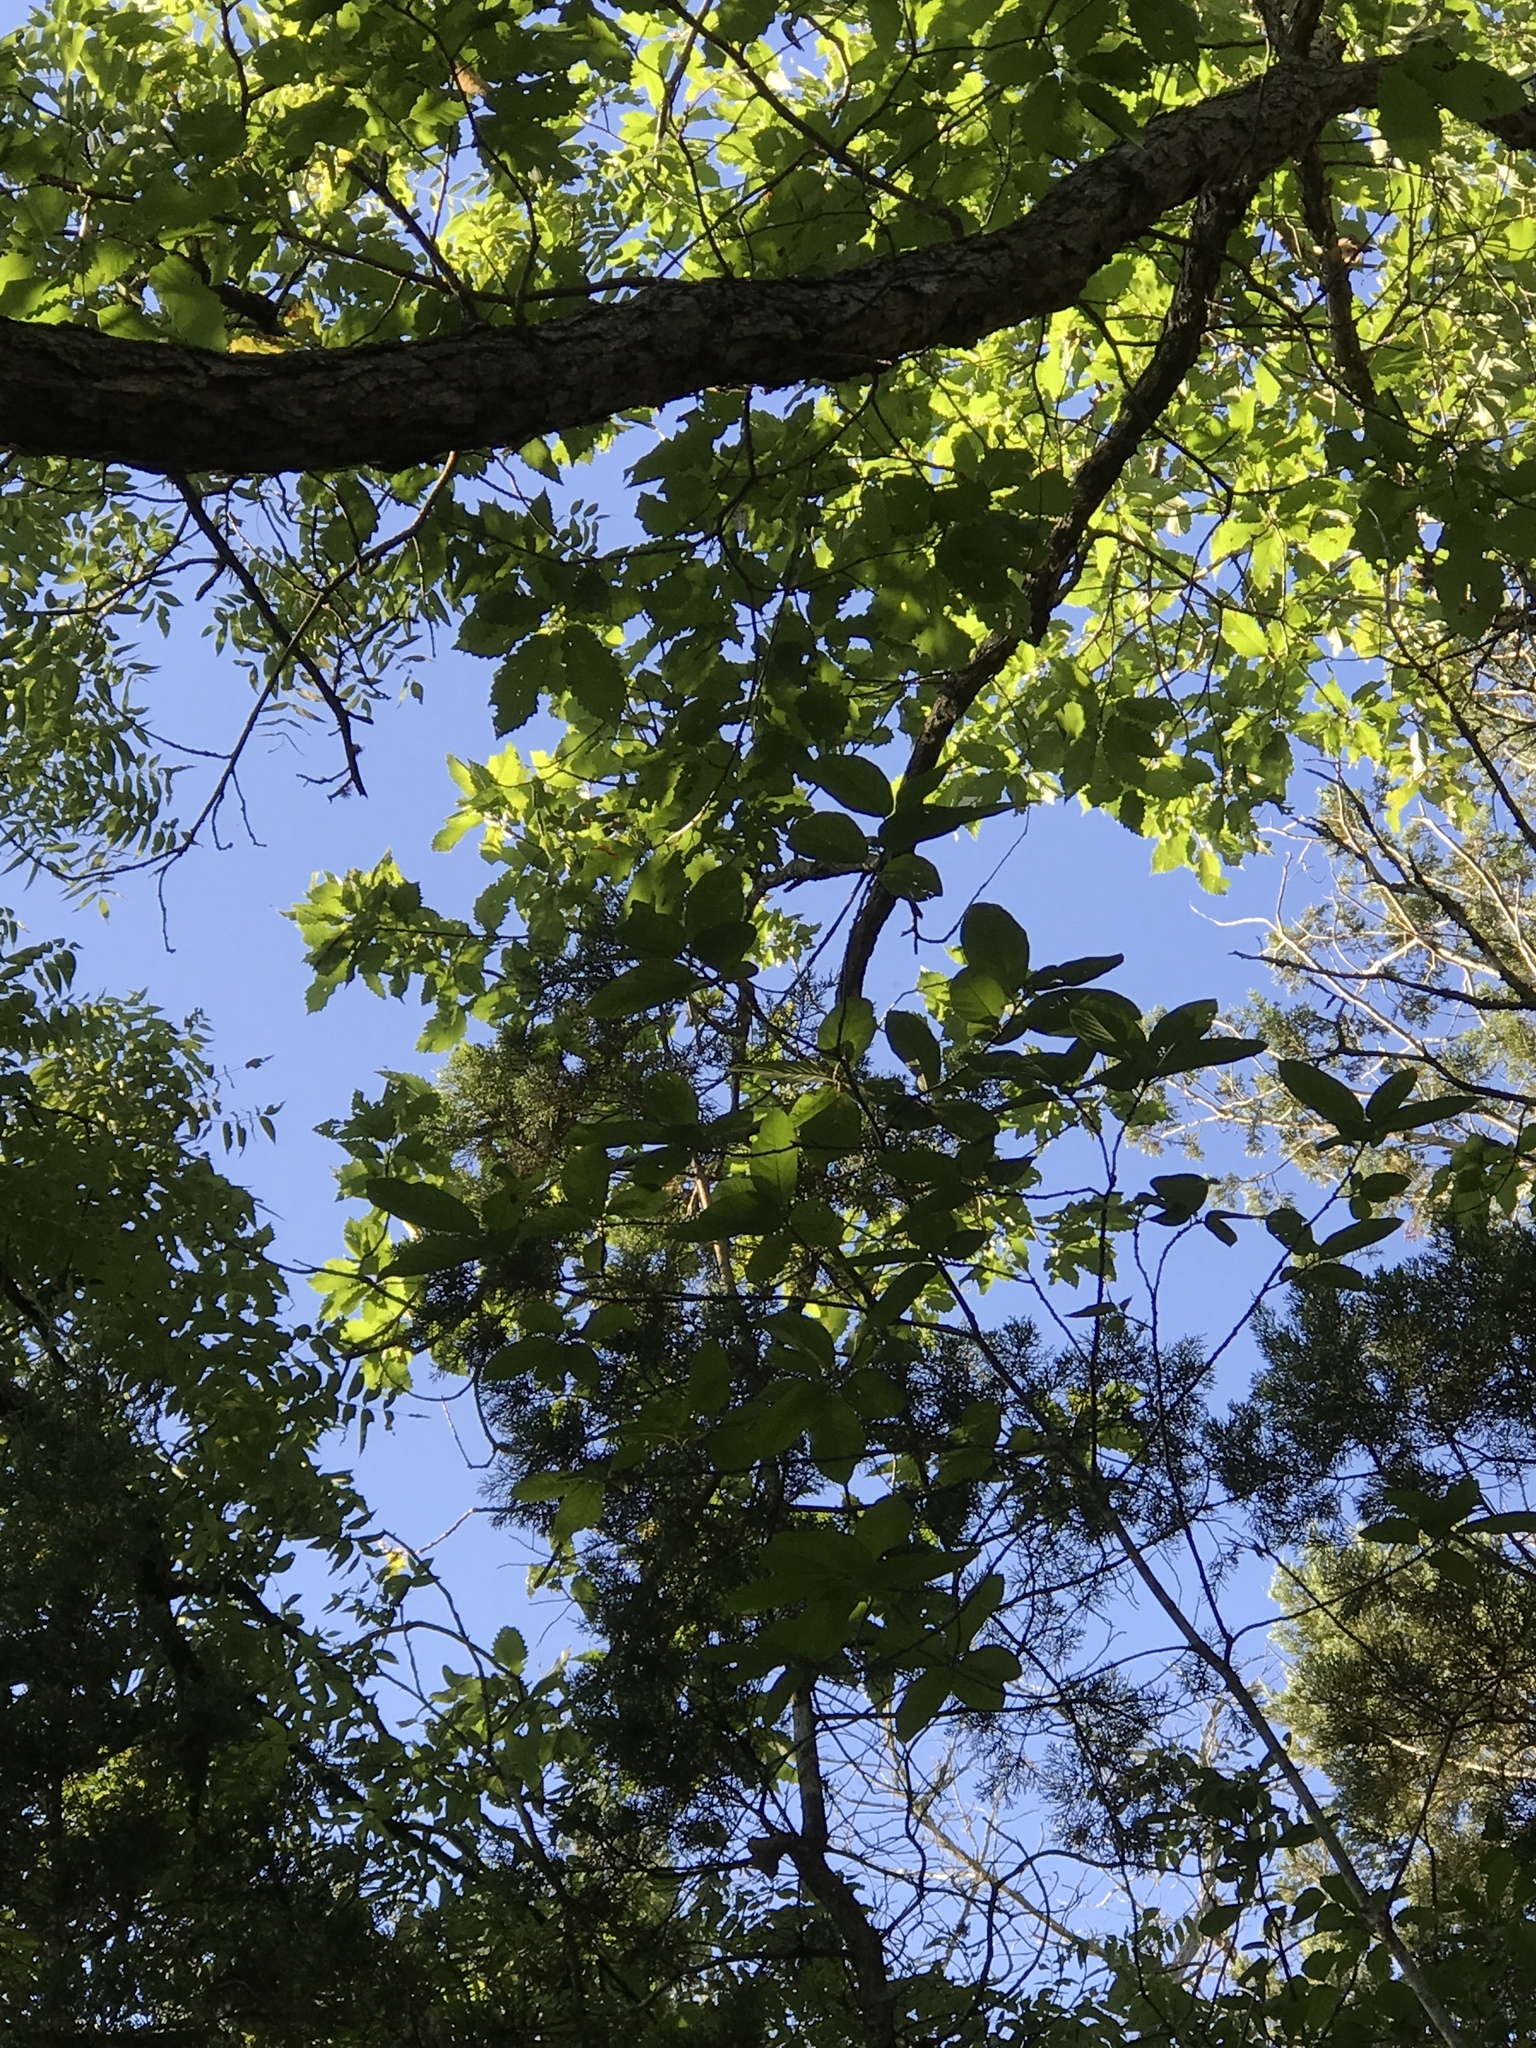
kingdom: Plantae
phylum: Tracheophyta
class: Magnoliopsida
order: Fagales
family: Fagaceae
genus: Quercus
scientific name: Quercus muehlenbergii
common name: Chinkapin oak
